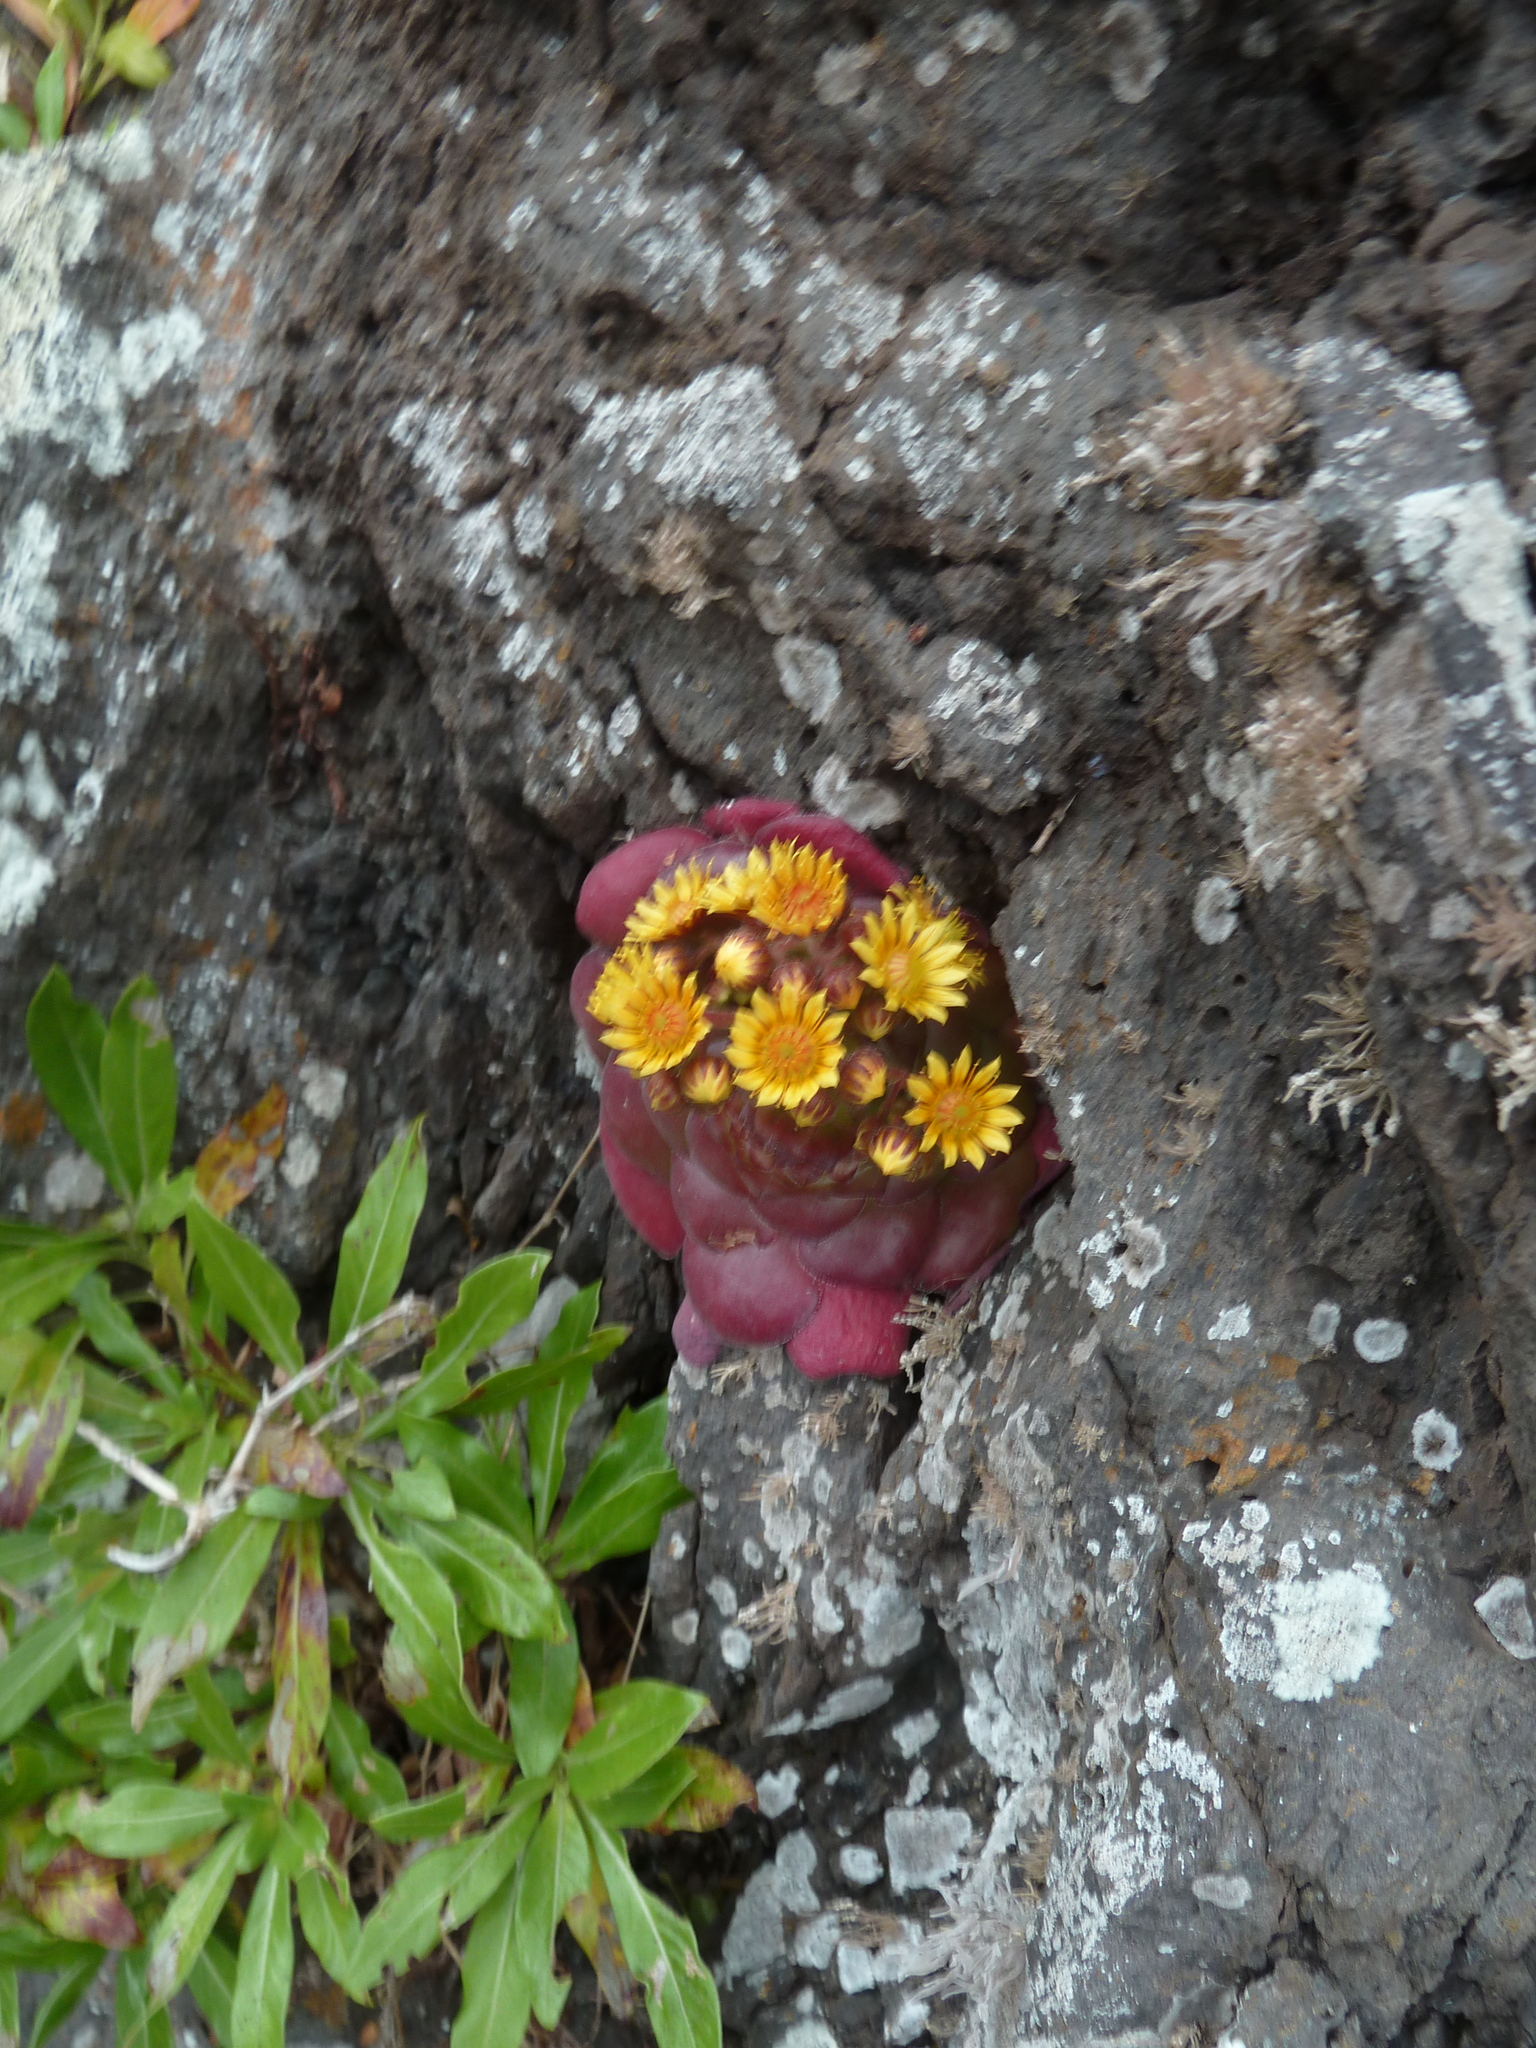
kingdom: Plantae
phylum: Tracheophyta
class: Magnoliopsida
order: Saxifragales
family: Crassulaceae
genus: Aeonium
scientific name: Aeonium glandulosum
